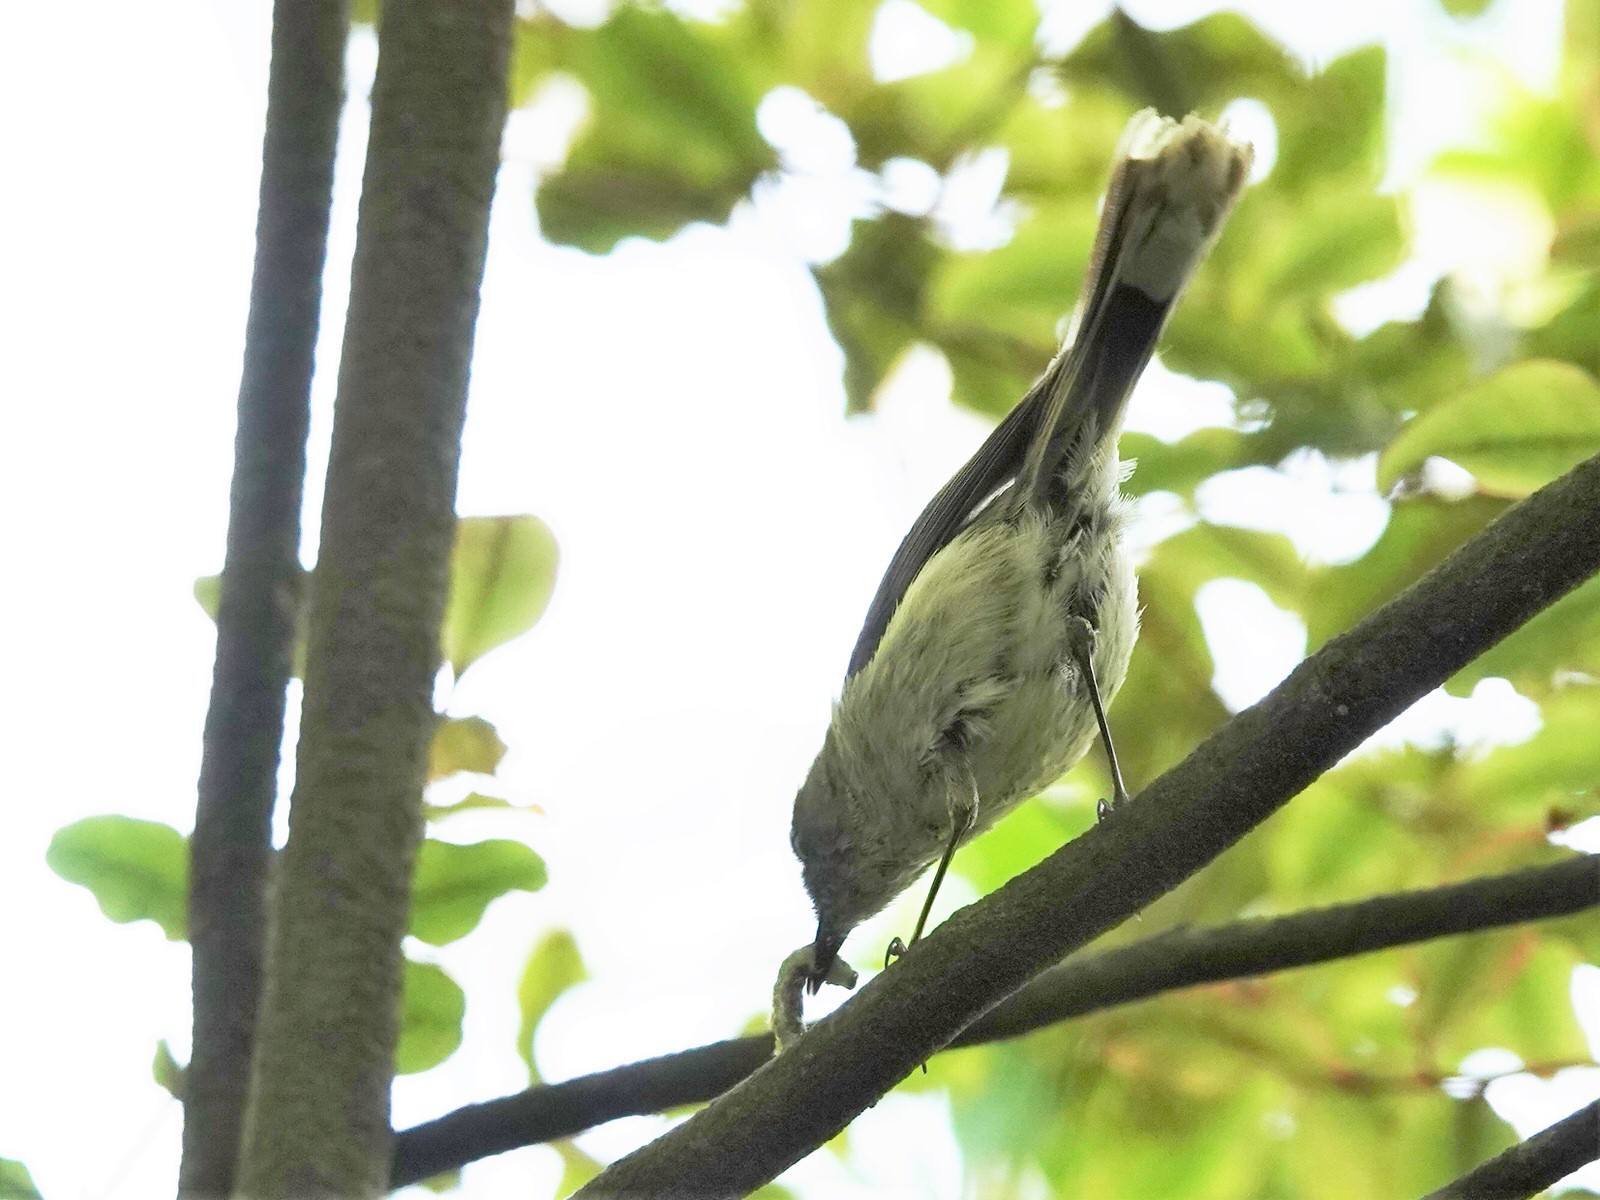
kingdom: Animalia
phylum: Chordata
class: Aves
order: Passeriformes
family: Acanthizidae
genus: Gerygone
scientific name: Gerygone igata
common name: Grey gerygone
